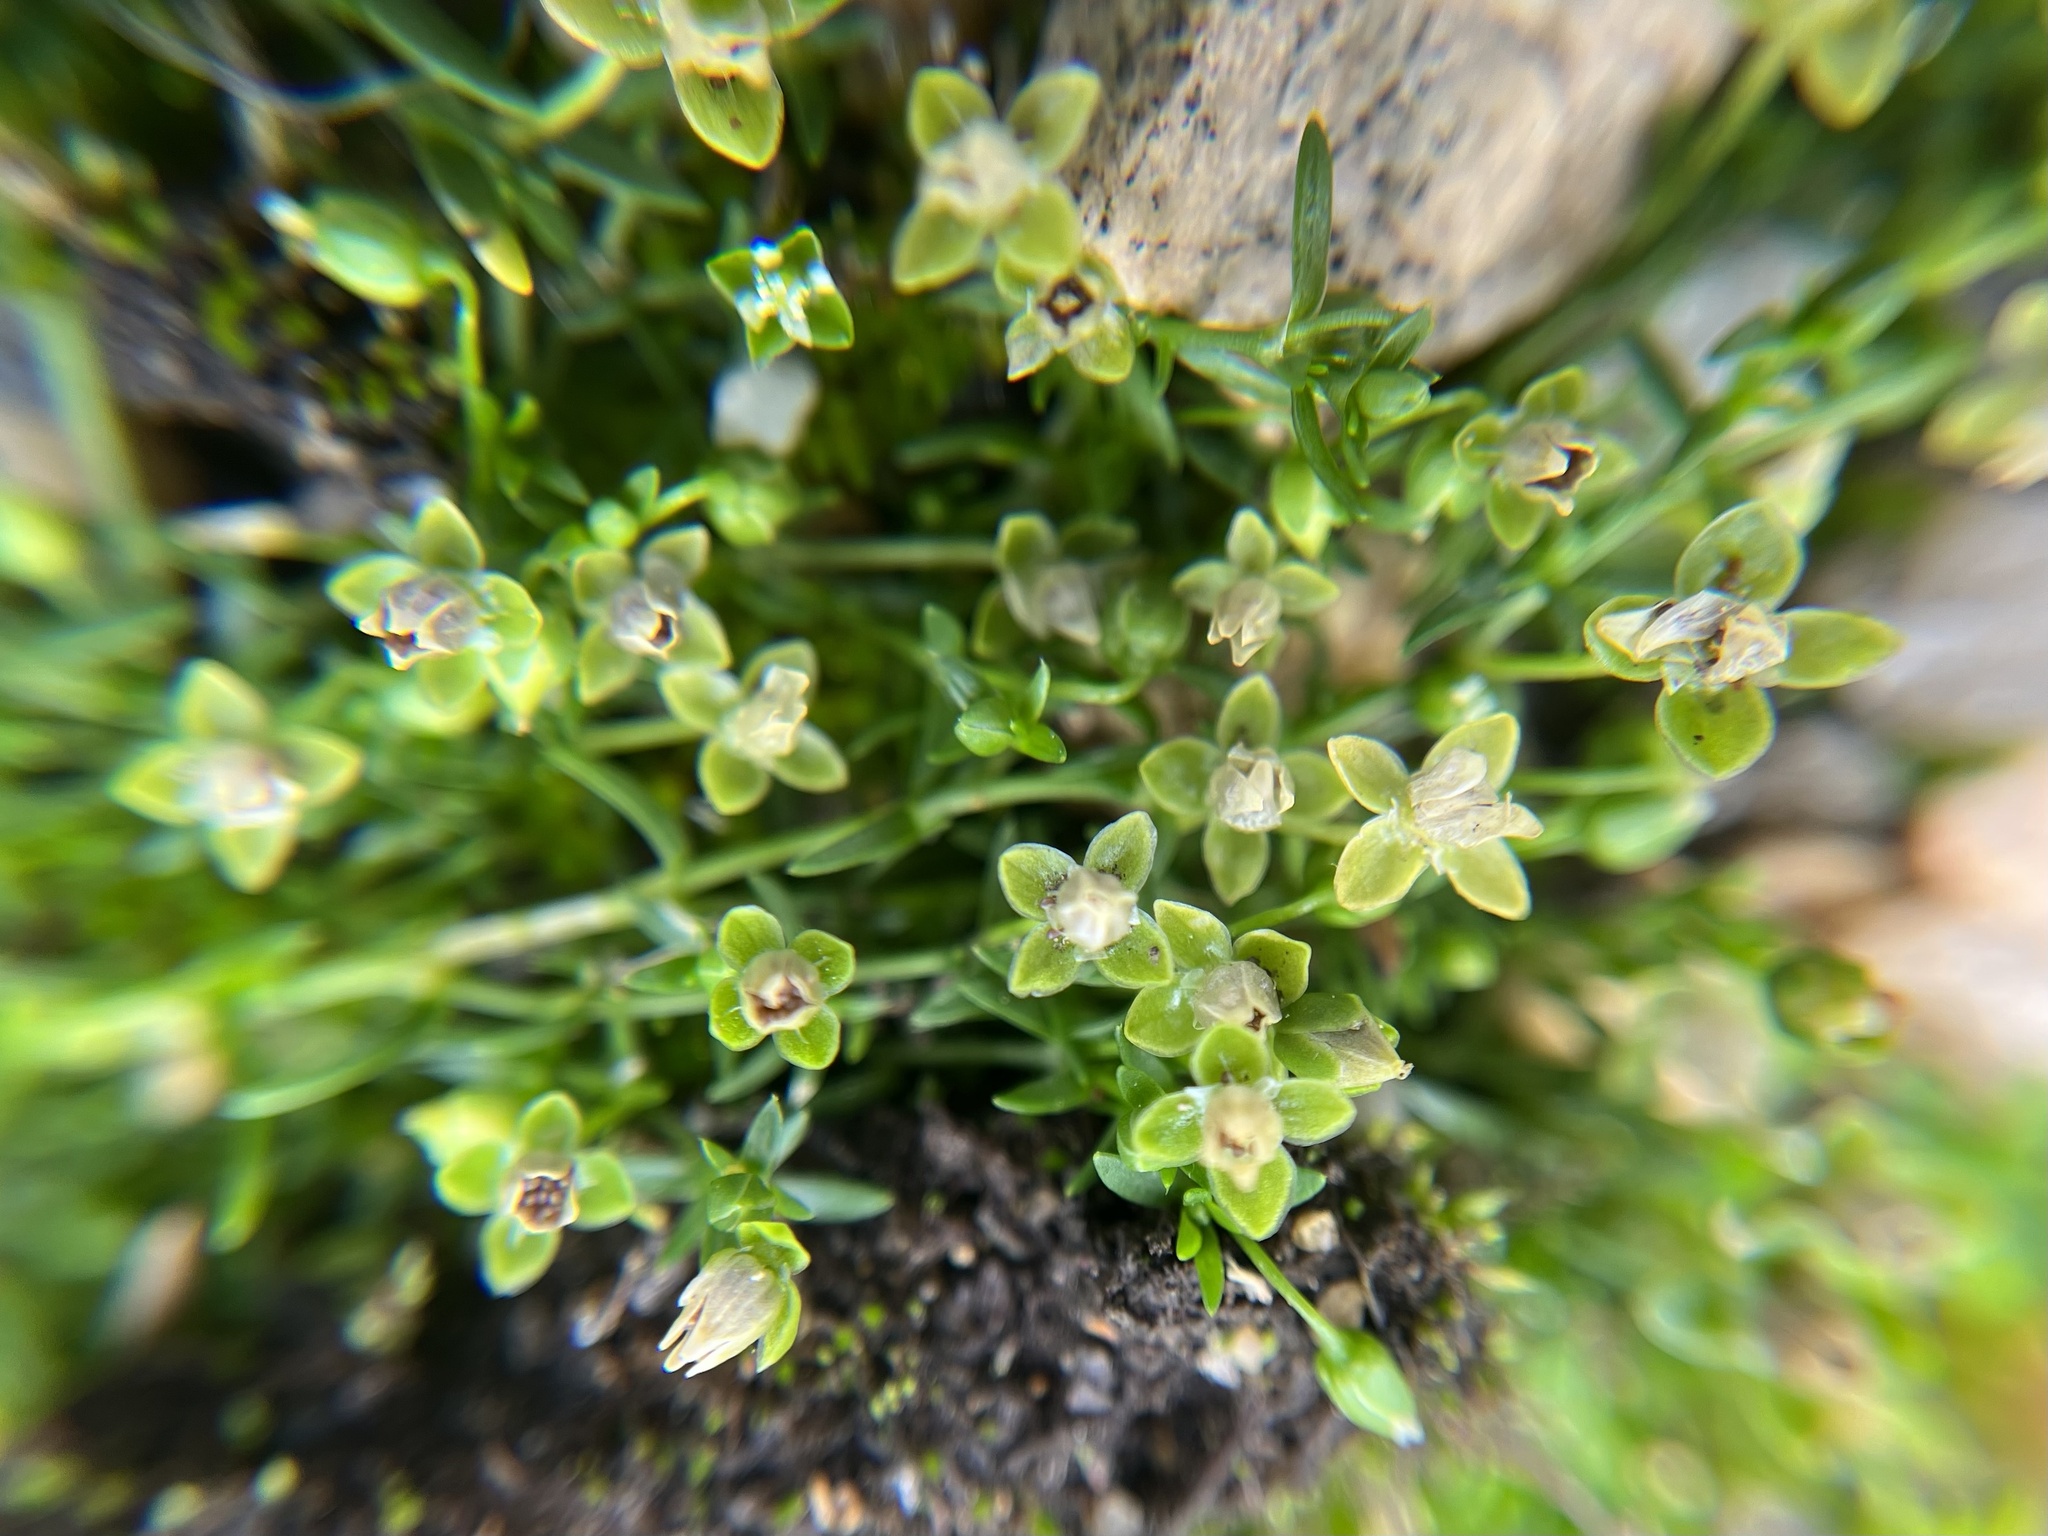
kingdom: Plantae
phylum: Tracheophyta
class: Magnoliopsida
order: Caryophyllales
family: Caryophyllaceae
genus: Sagina
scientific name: Sagina procumbens
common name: Procumbent pearlwort
